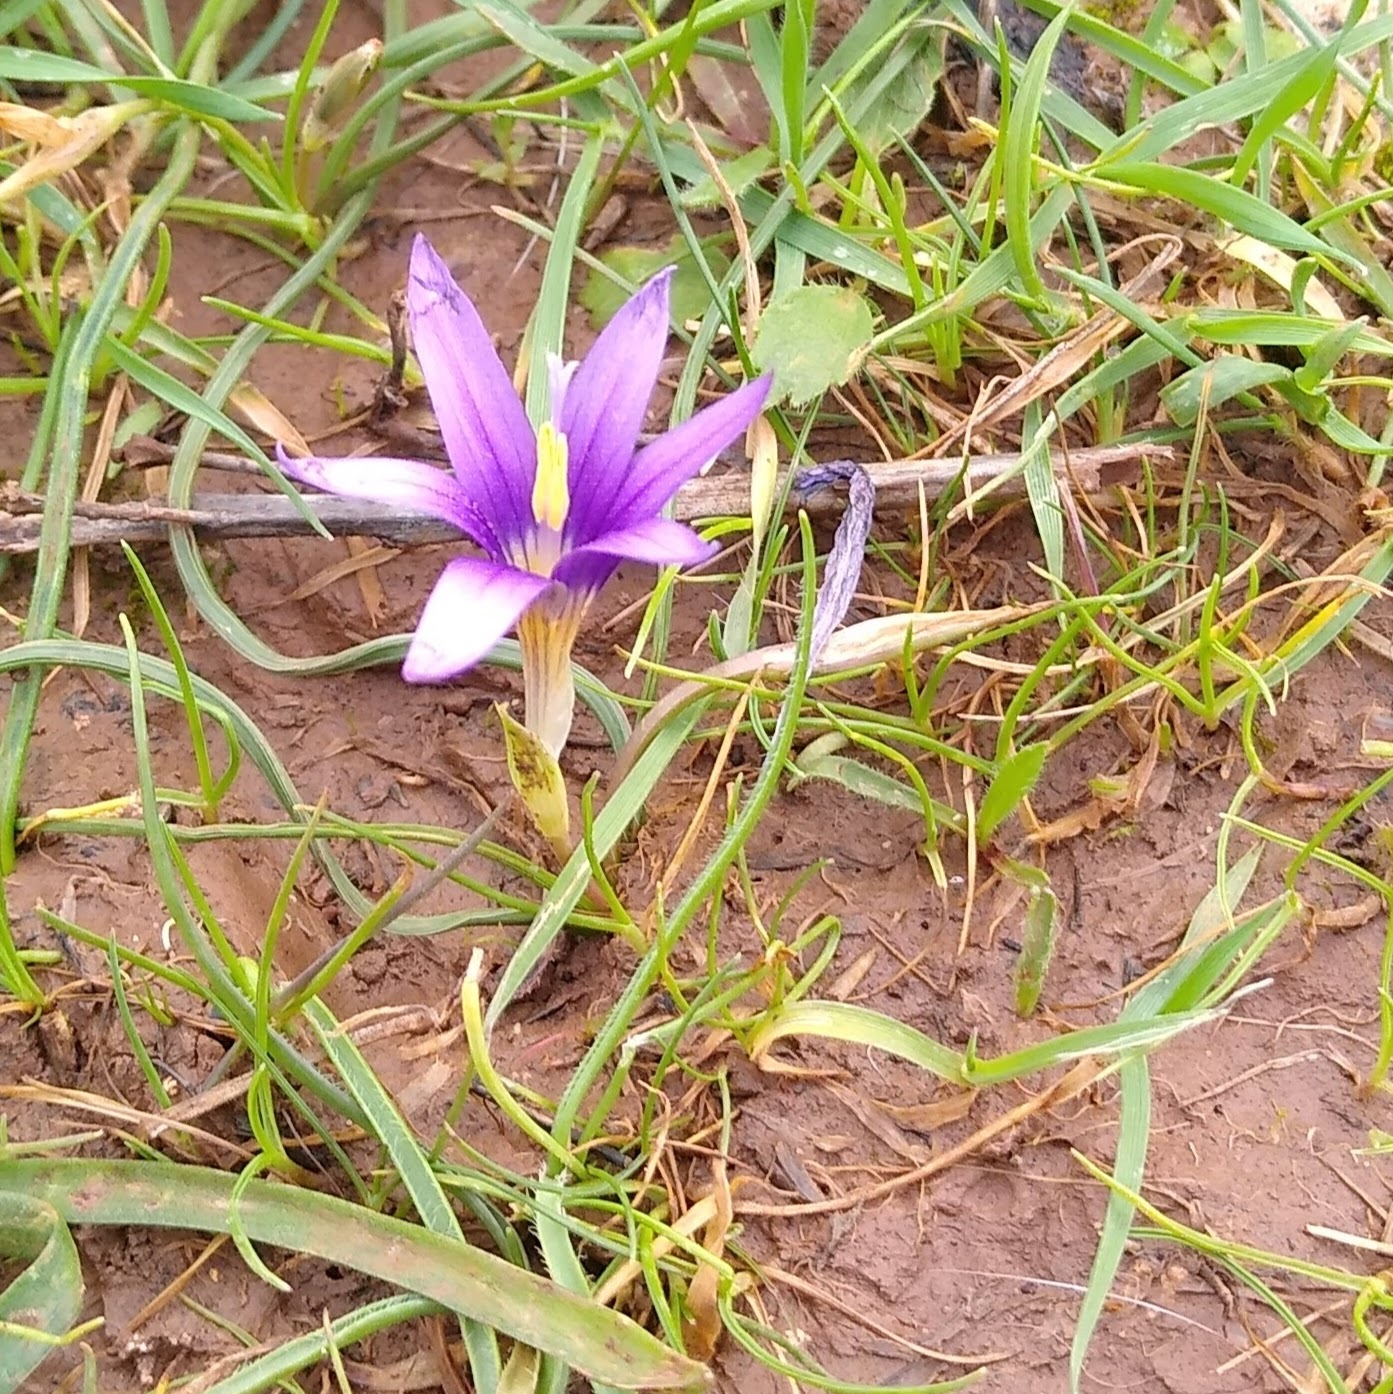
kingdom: Plantae
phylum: Tracheophyta
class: Liliopsida
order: Asparagales
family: Iridaceae
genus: Romulea
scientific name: Romulea tempskyana
